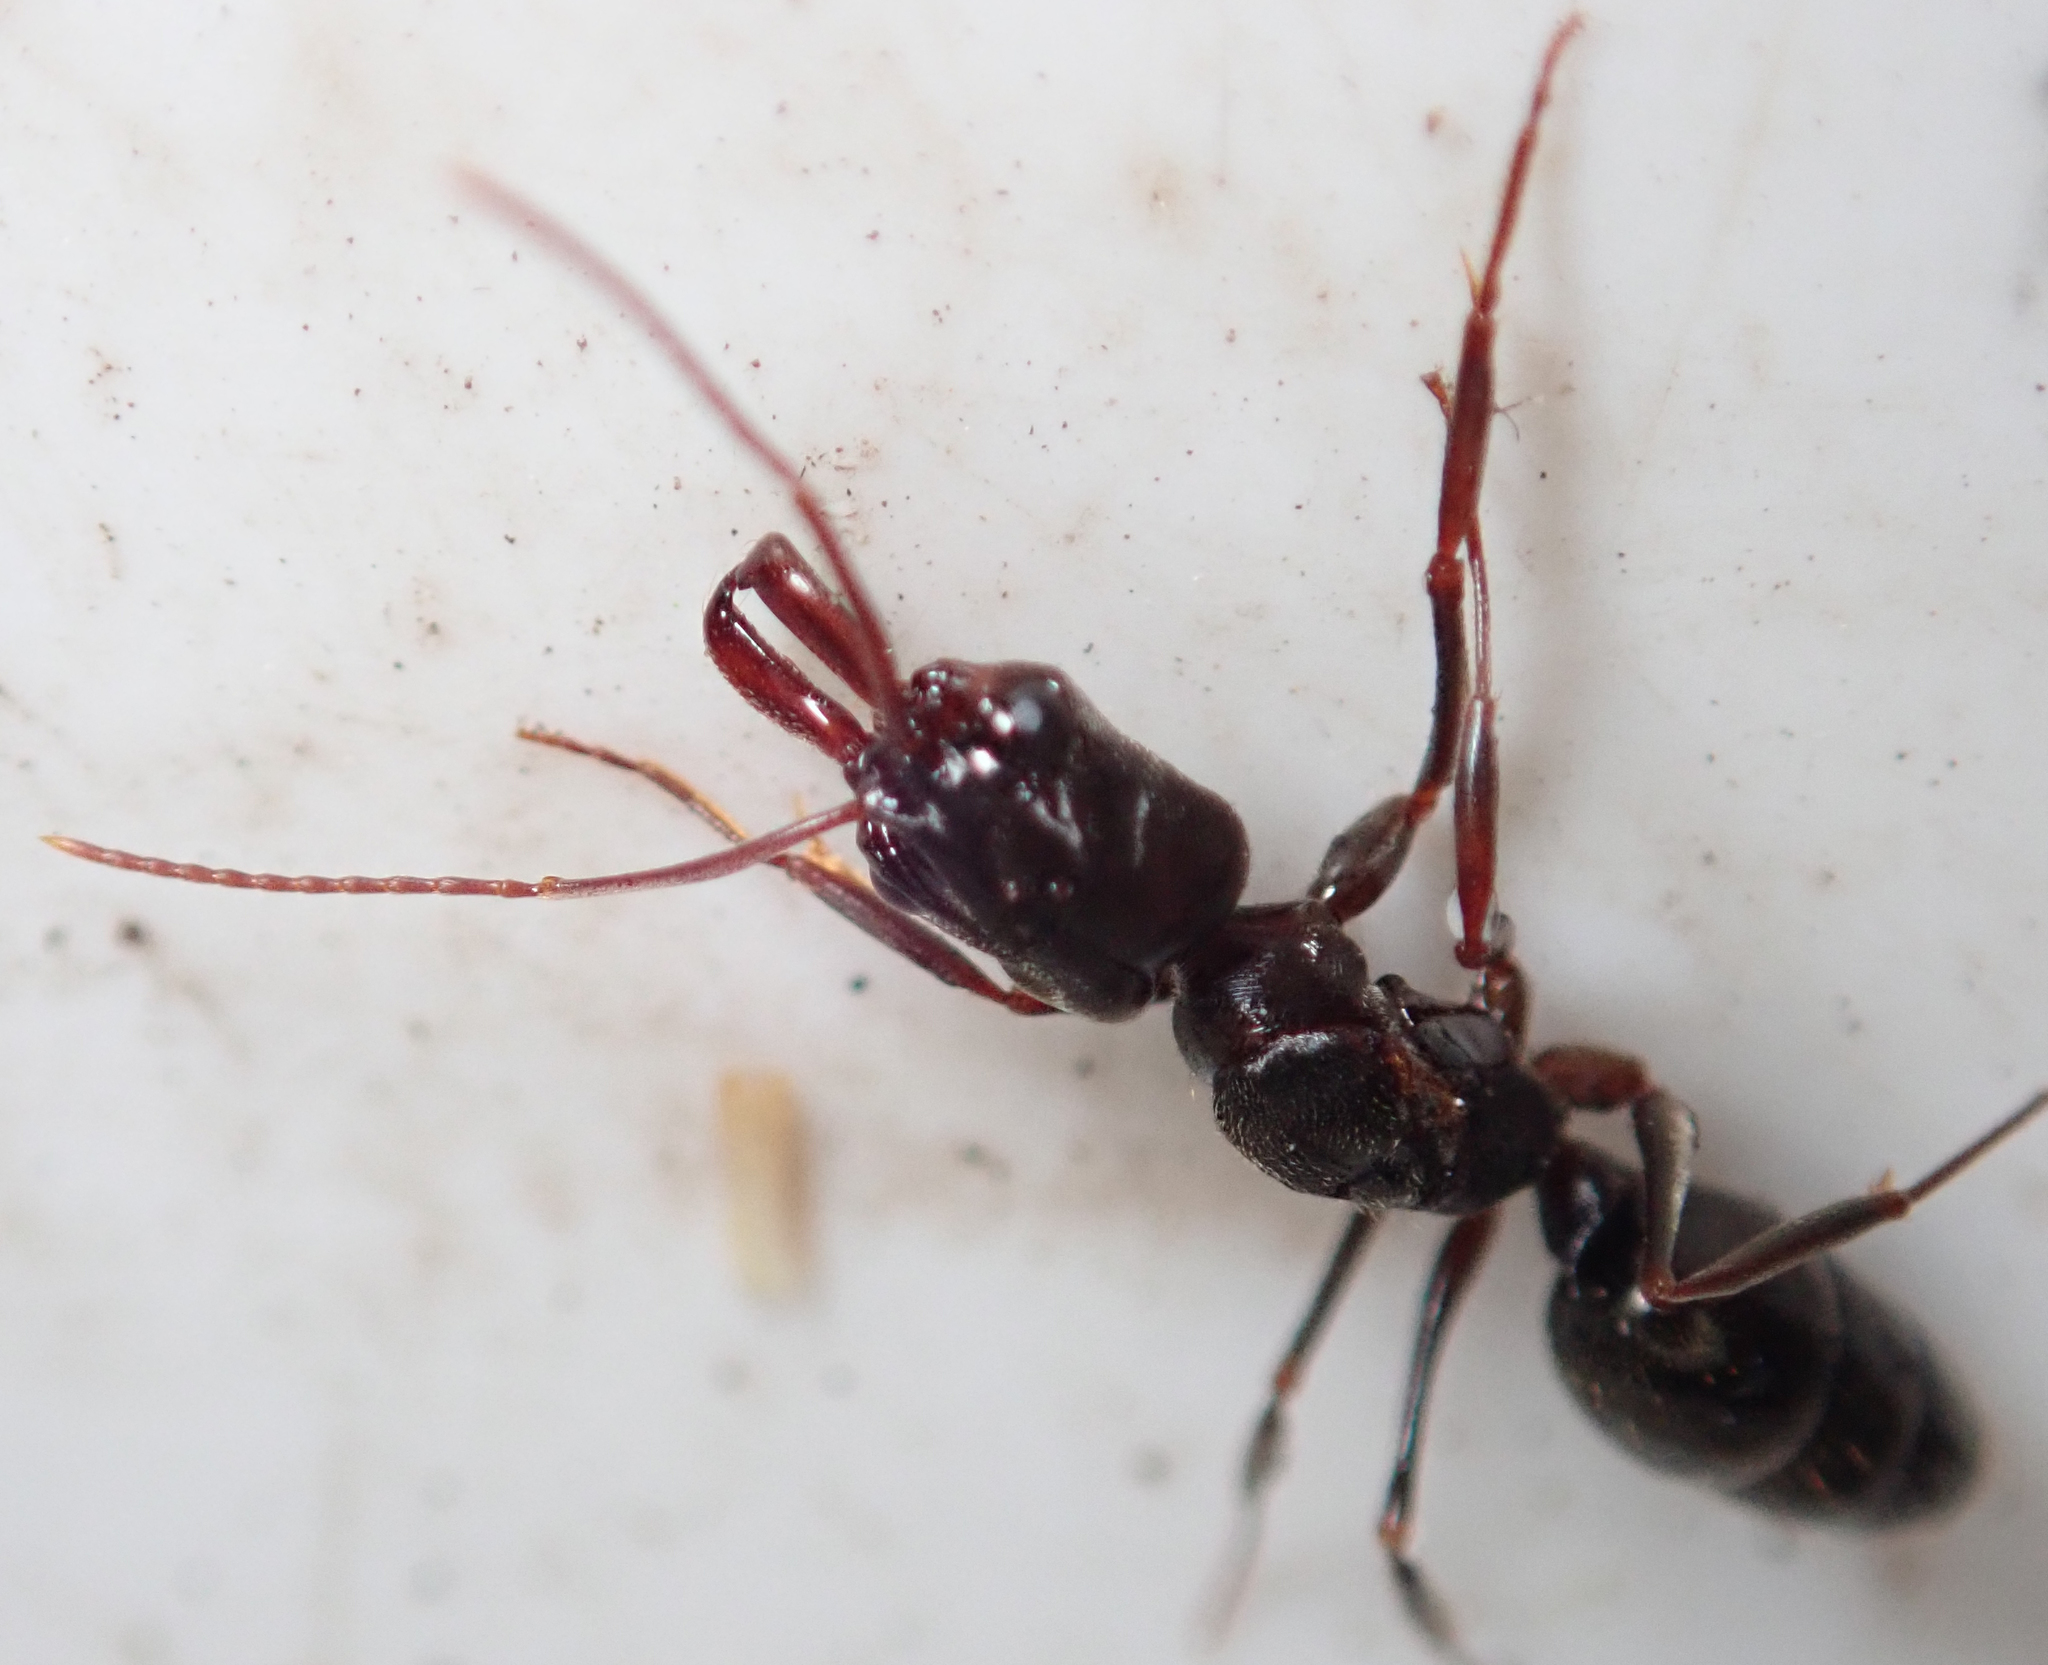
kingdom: Animalia
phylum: Arthropoda
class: Insecta
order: Hymenoptera
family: Formicidae
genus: Odontomachus
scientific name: Odontomachus troglodytes
